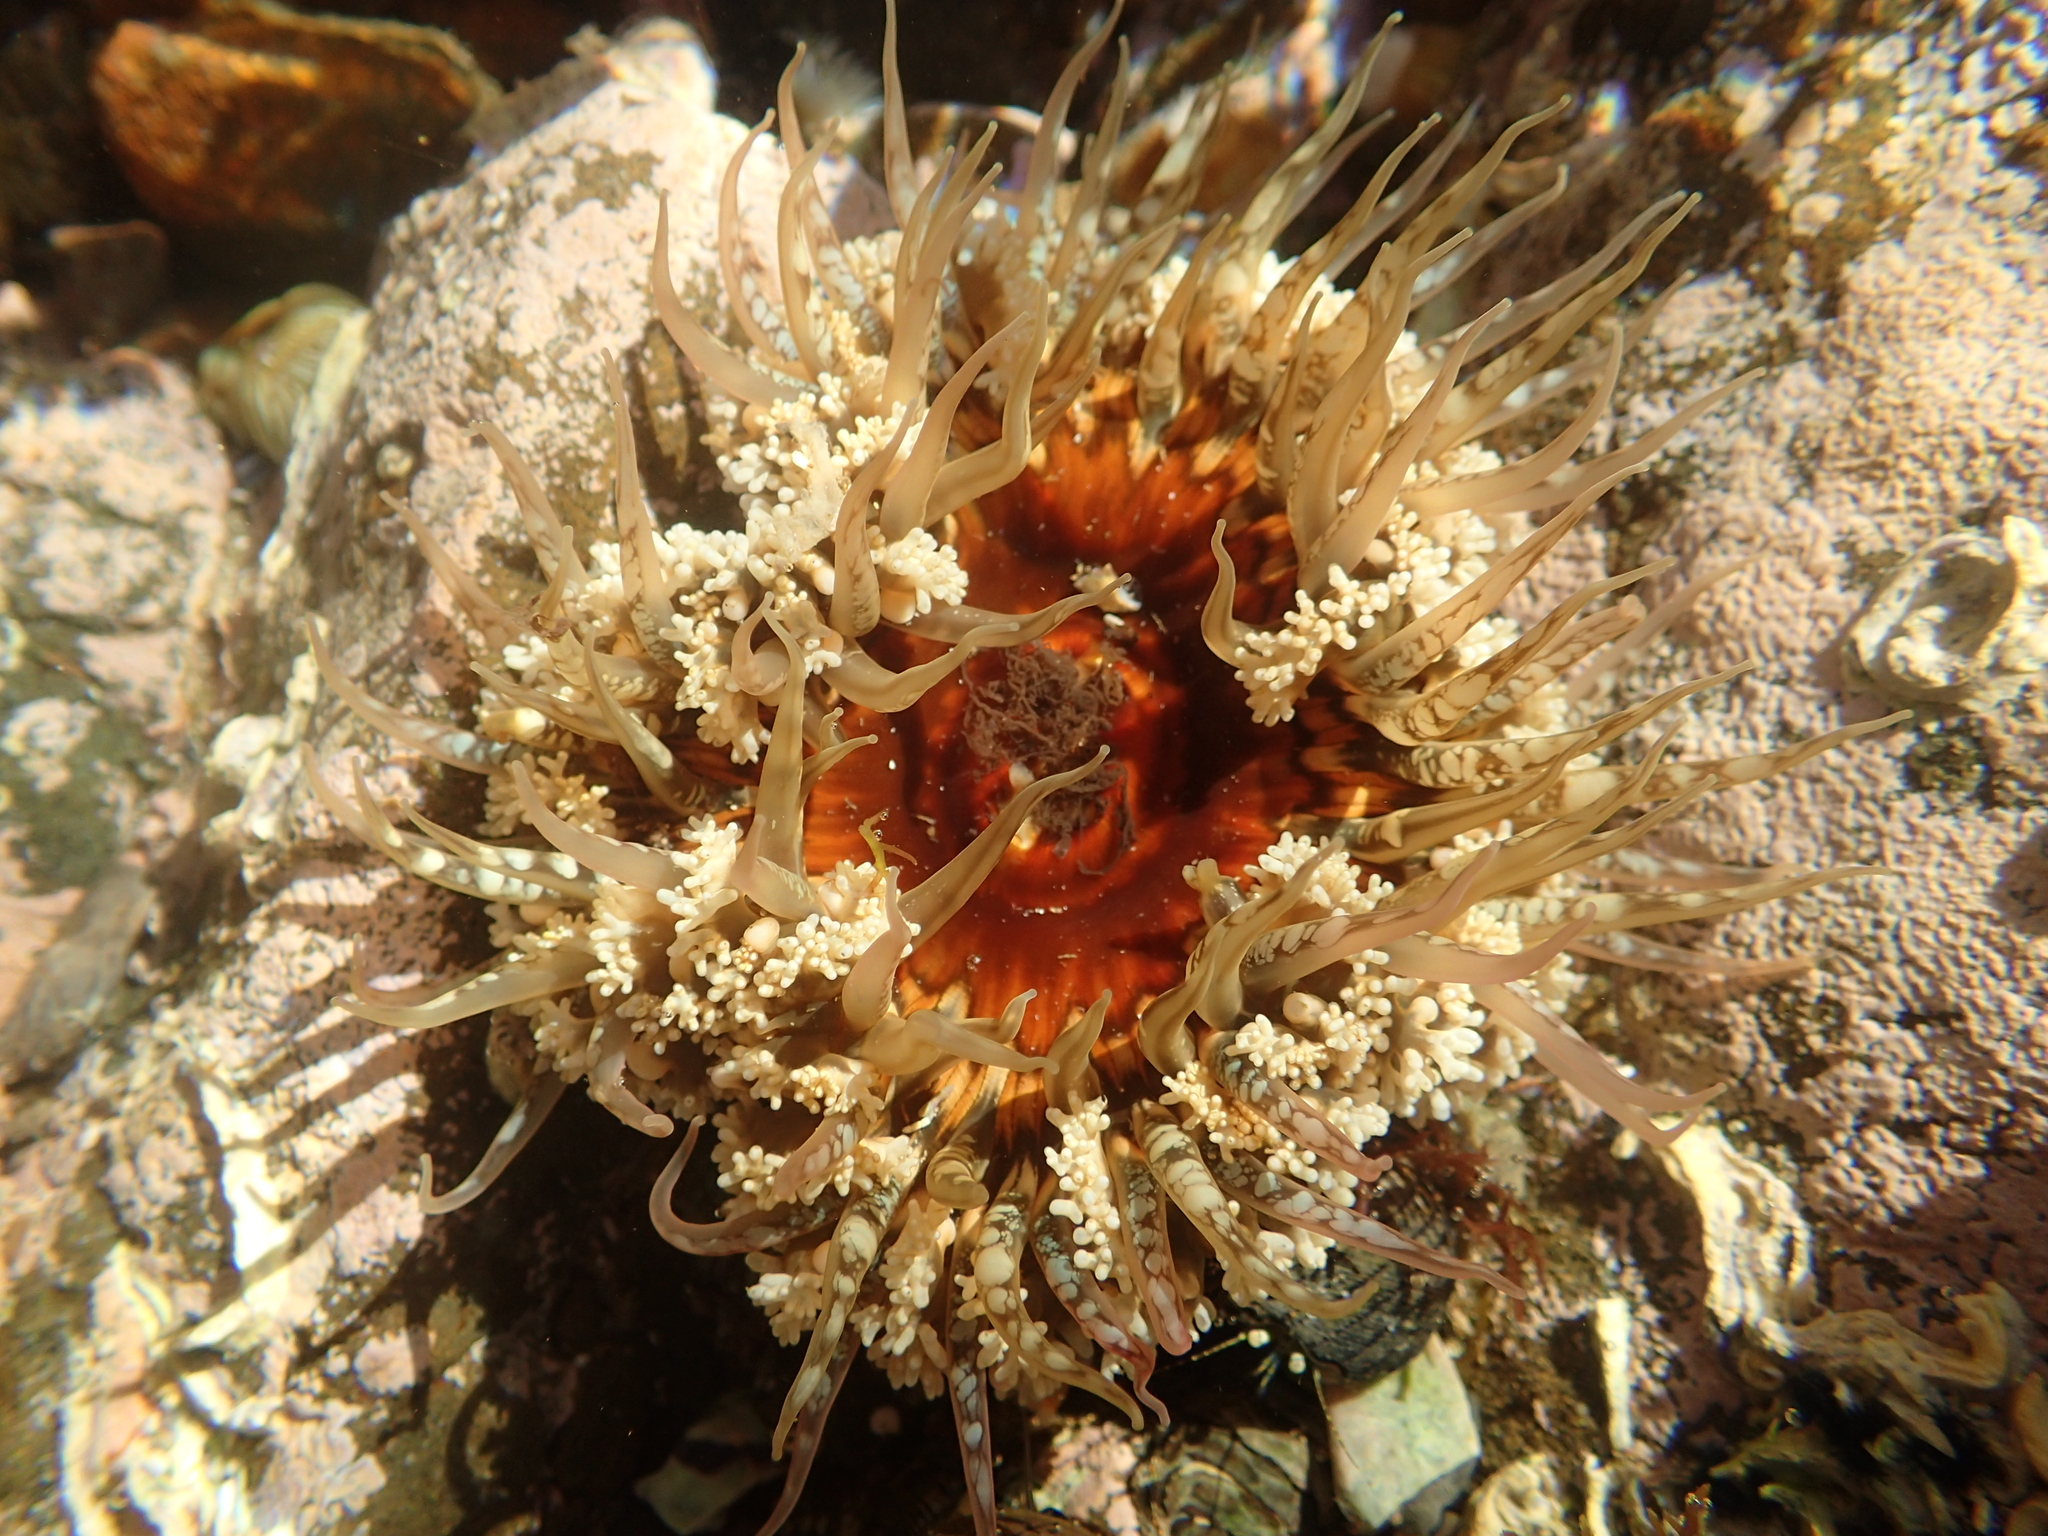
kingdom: Animalia
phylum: Cnidaria
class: Anthozoa
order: Actiniaria
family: Actiniidae
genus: Oulactis
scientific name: Oulactis muscosa
